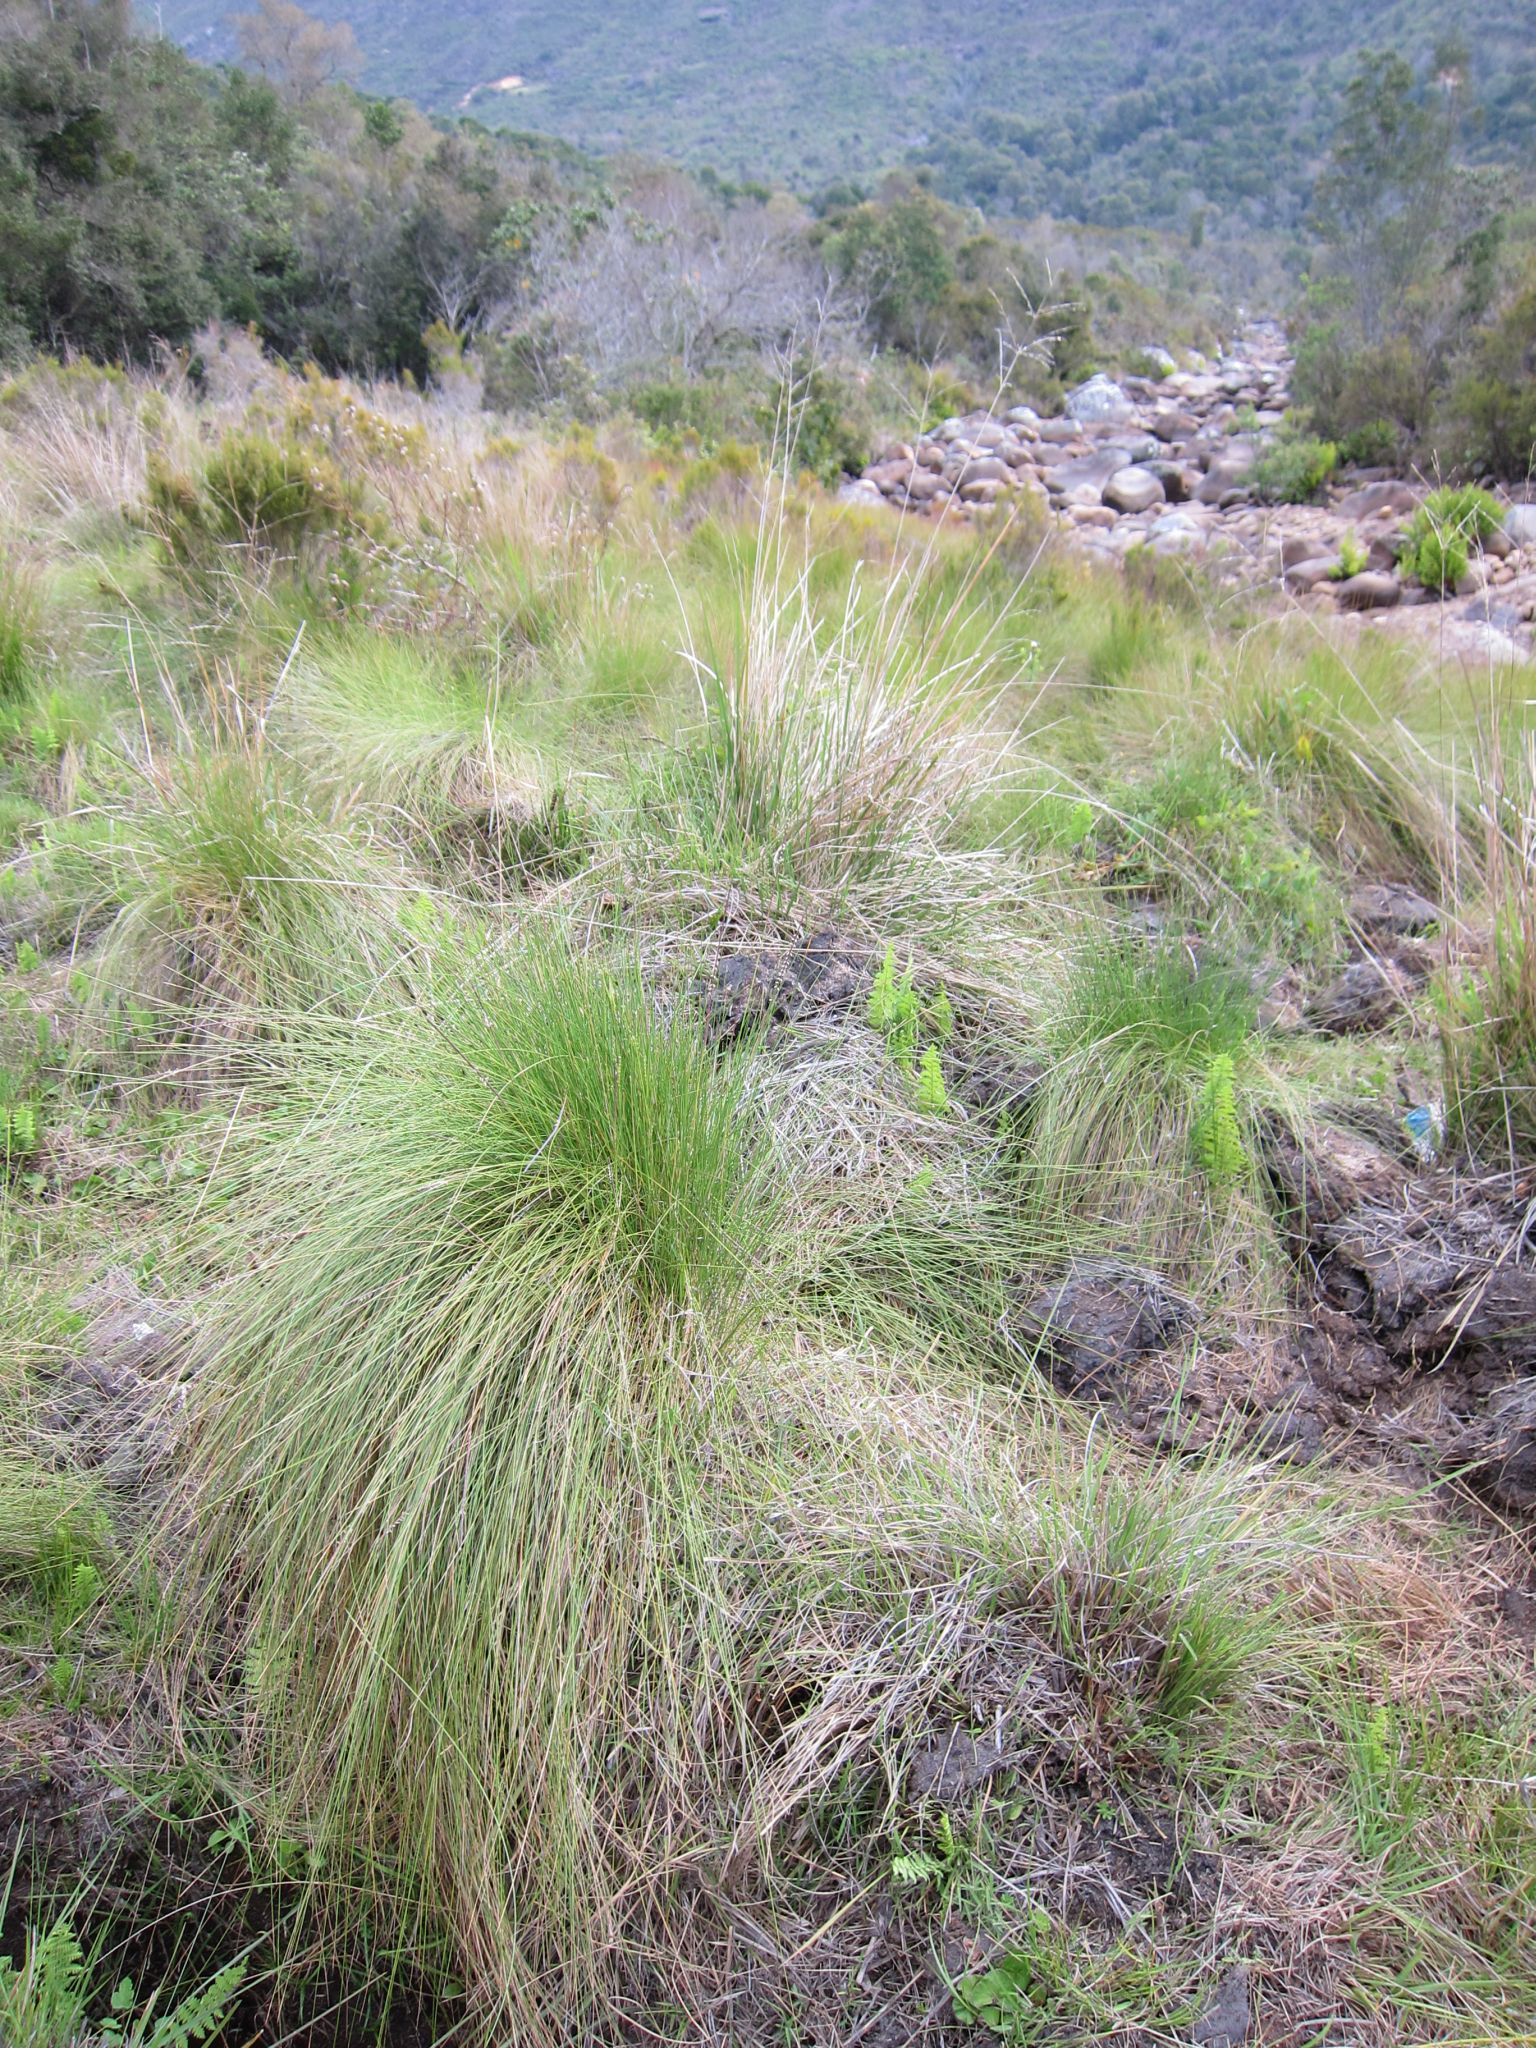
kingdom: Plantae
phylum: Tracheophyta
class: Liliopsida
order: Poales
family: Poaceae
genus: Rhytachne
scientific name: Rhytachne rottboellioides
